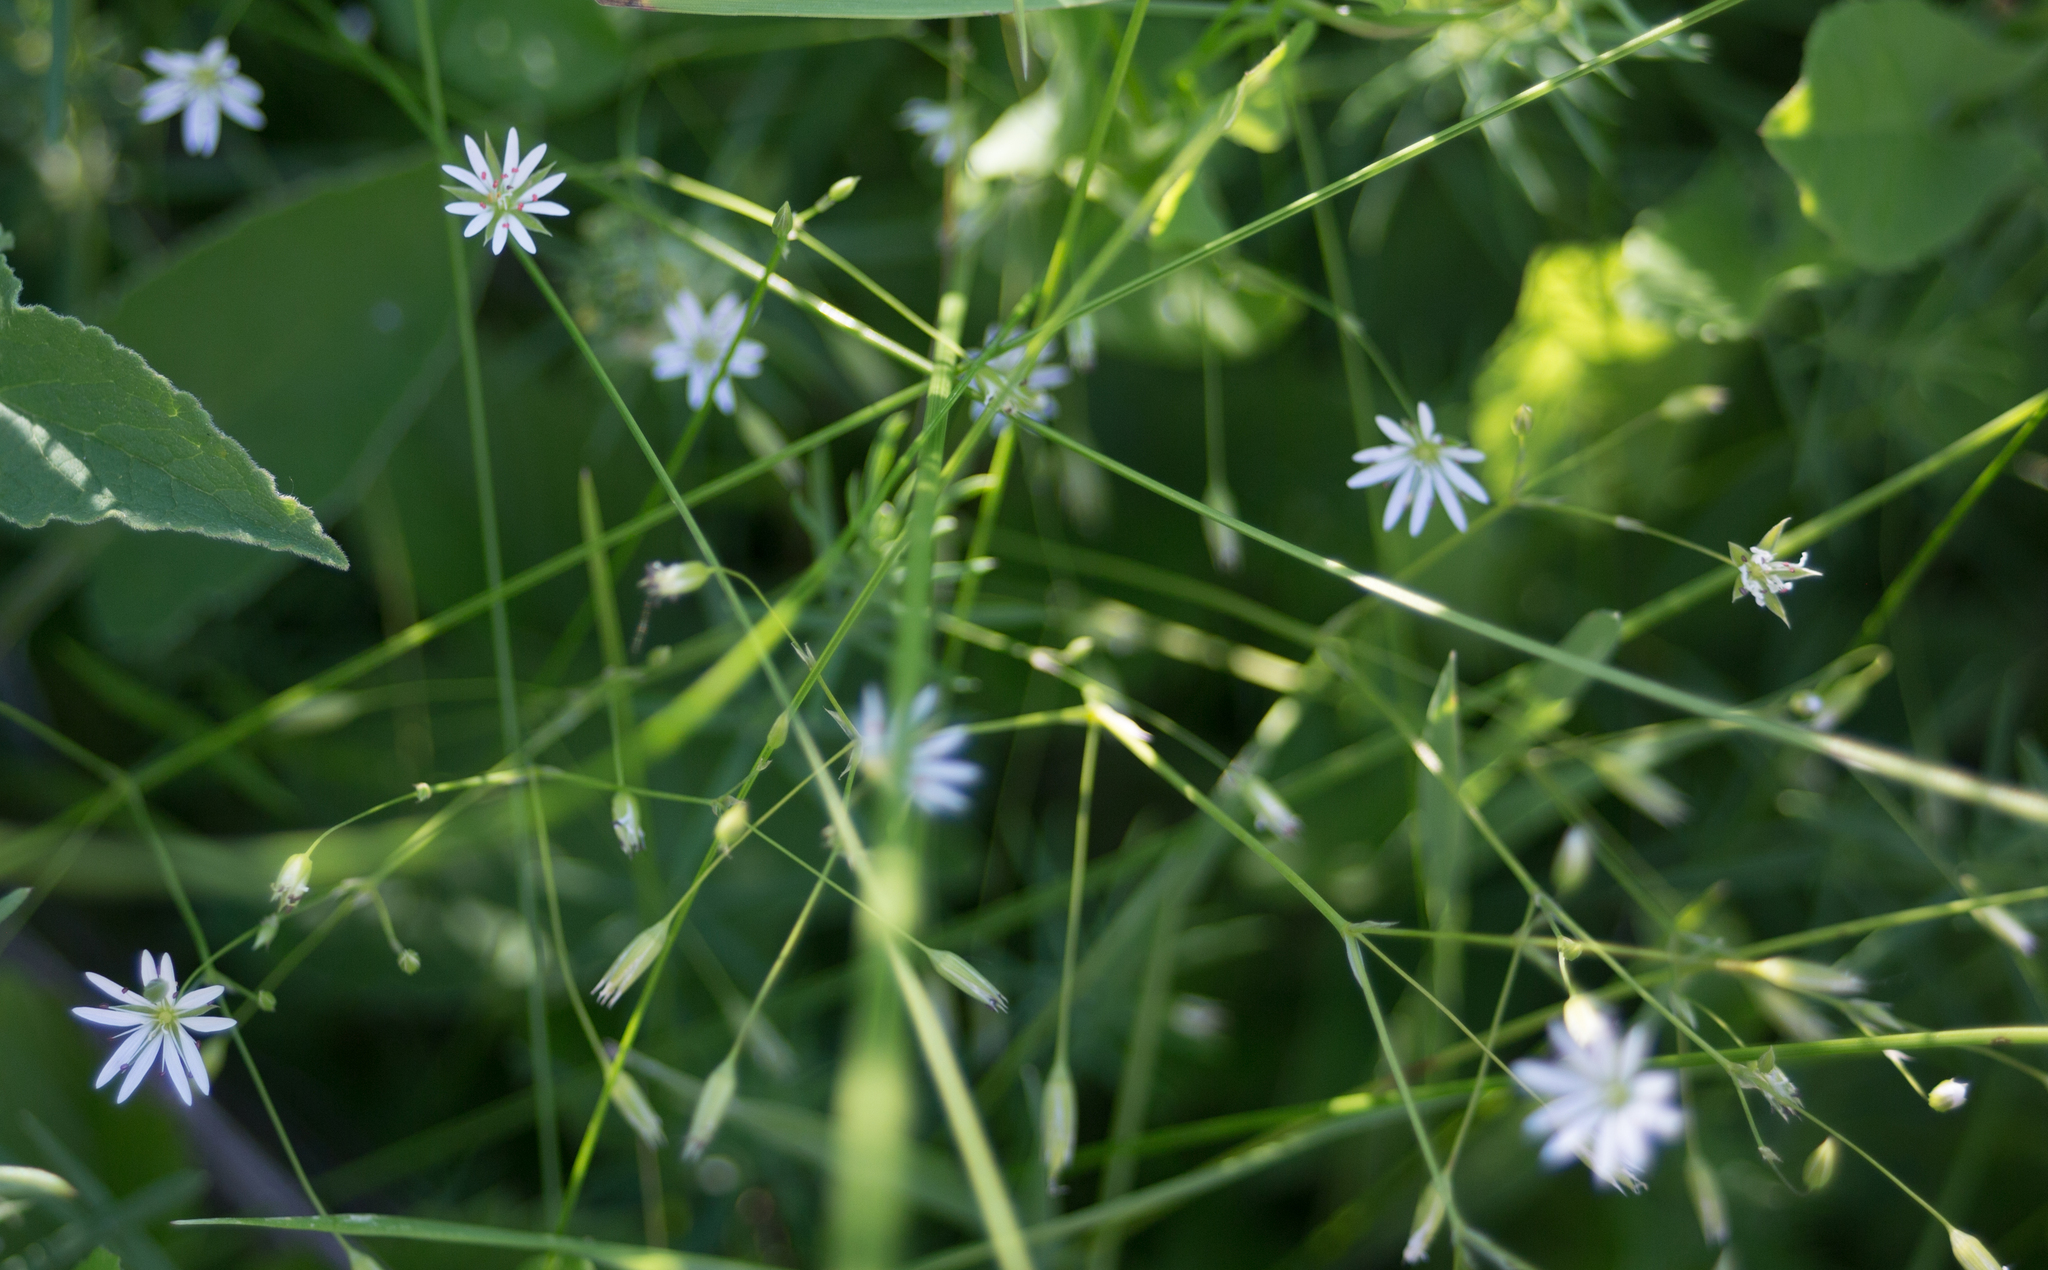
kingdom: Plantae
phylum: Tracheophyta
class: Magnoliopsida
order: Caryophyllales
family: Caryophyllaceae
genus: Stellaria
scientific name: Stellaria graminea
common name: Grass-like starwort
